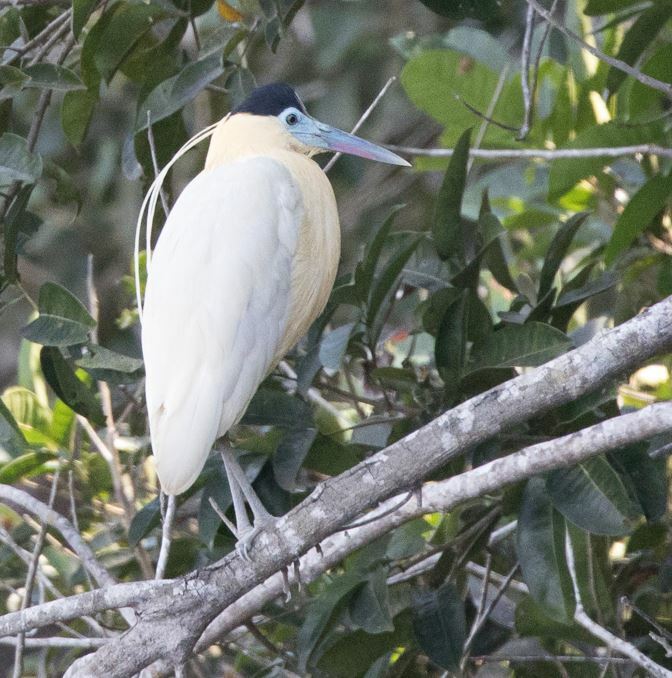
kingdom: Animalia
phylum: Chordata
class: Aves
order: Pelecaniformes
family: Ardeidae
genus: Pilherodius
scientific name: Pilherodius pileatus
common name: Capped heron
